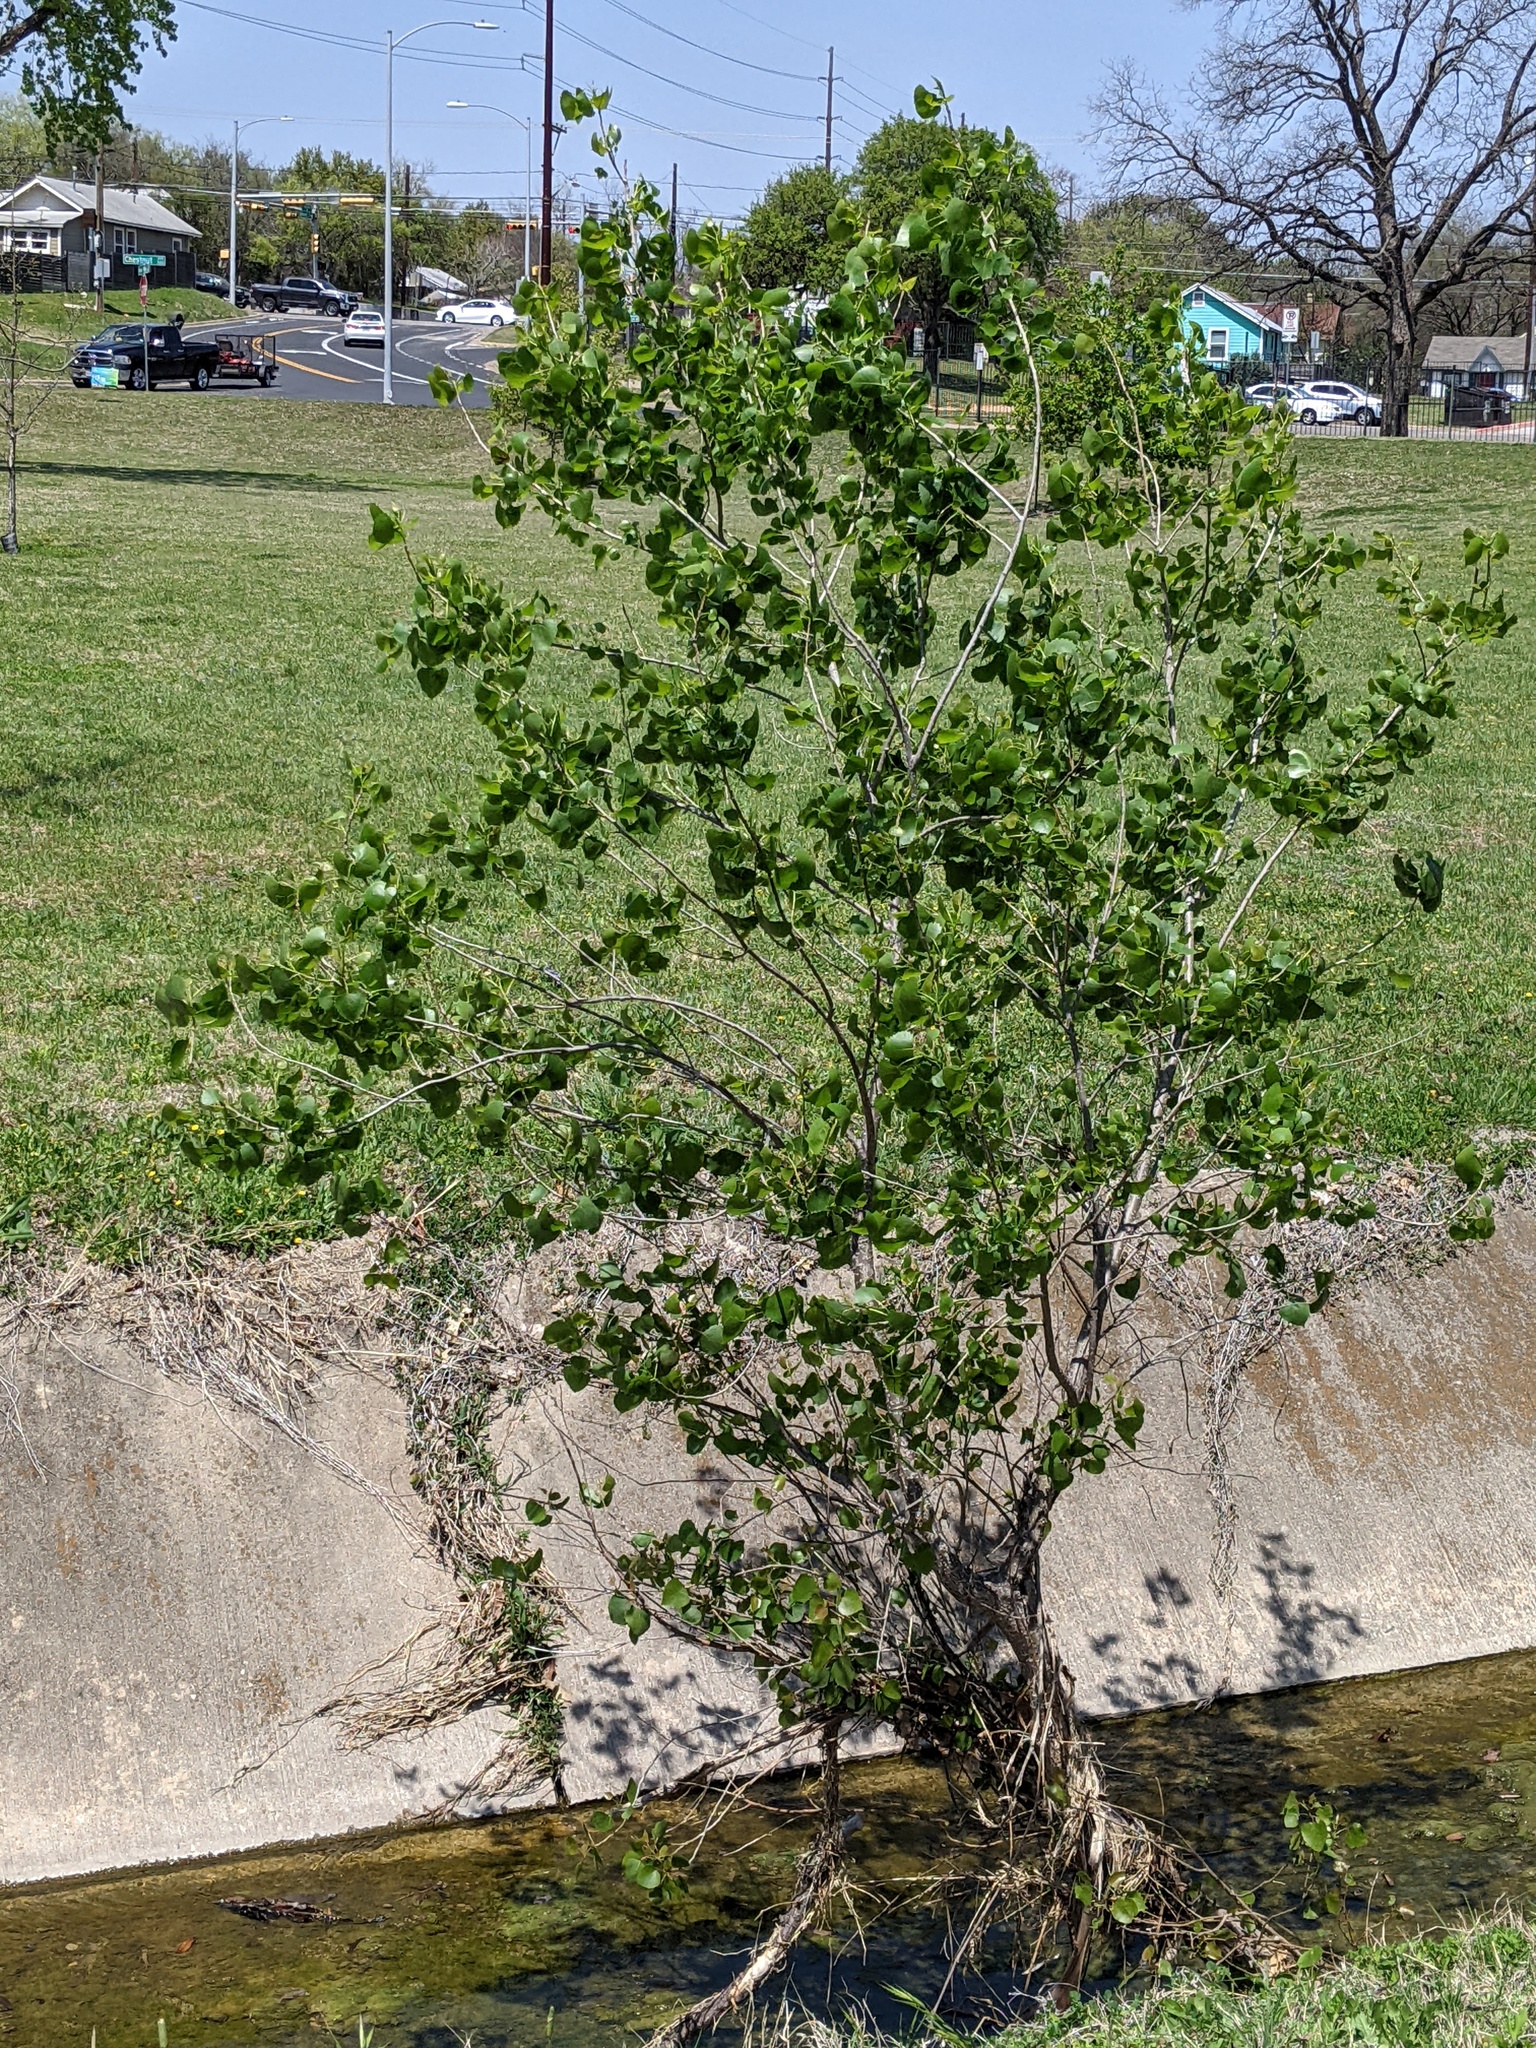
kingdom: Plantae
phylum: Tracheophyta
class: Magnoliopsida
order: Malpighiales
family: Salicaceae
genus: Populus
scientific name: Populus deltoides
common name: Eastern cottonwood
